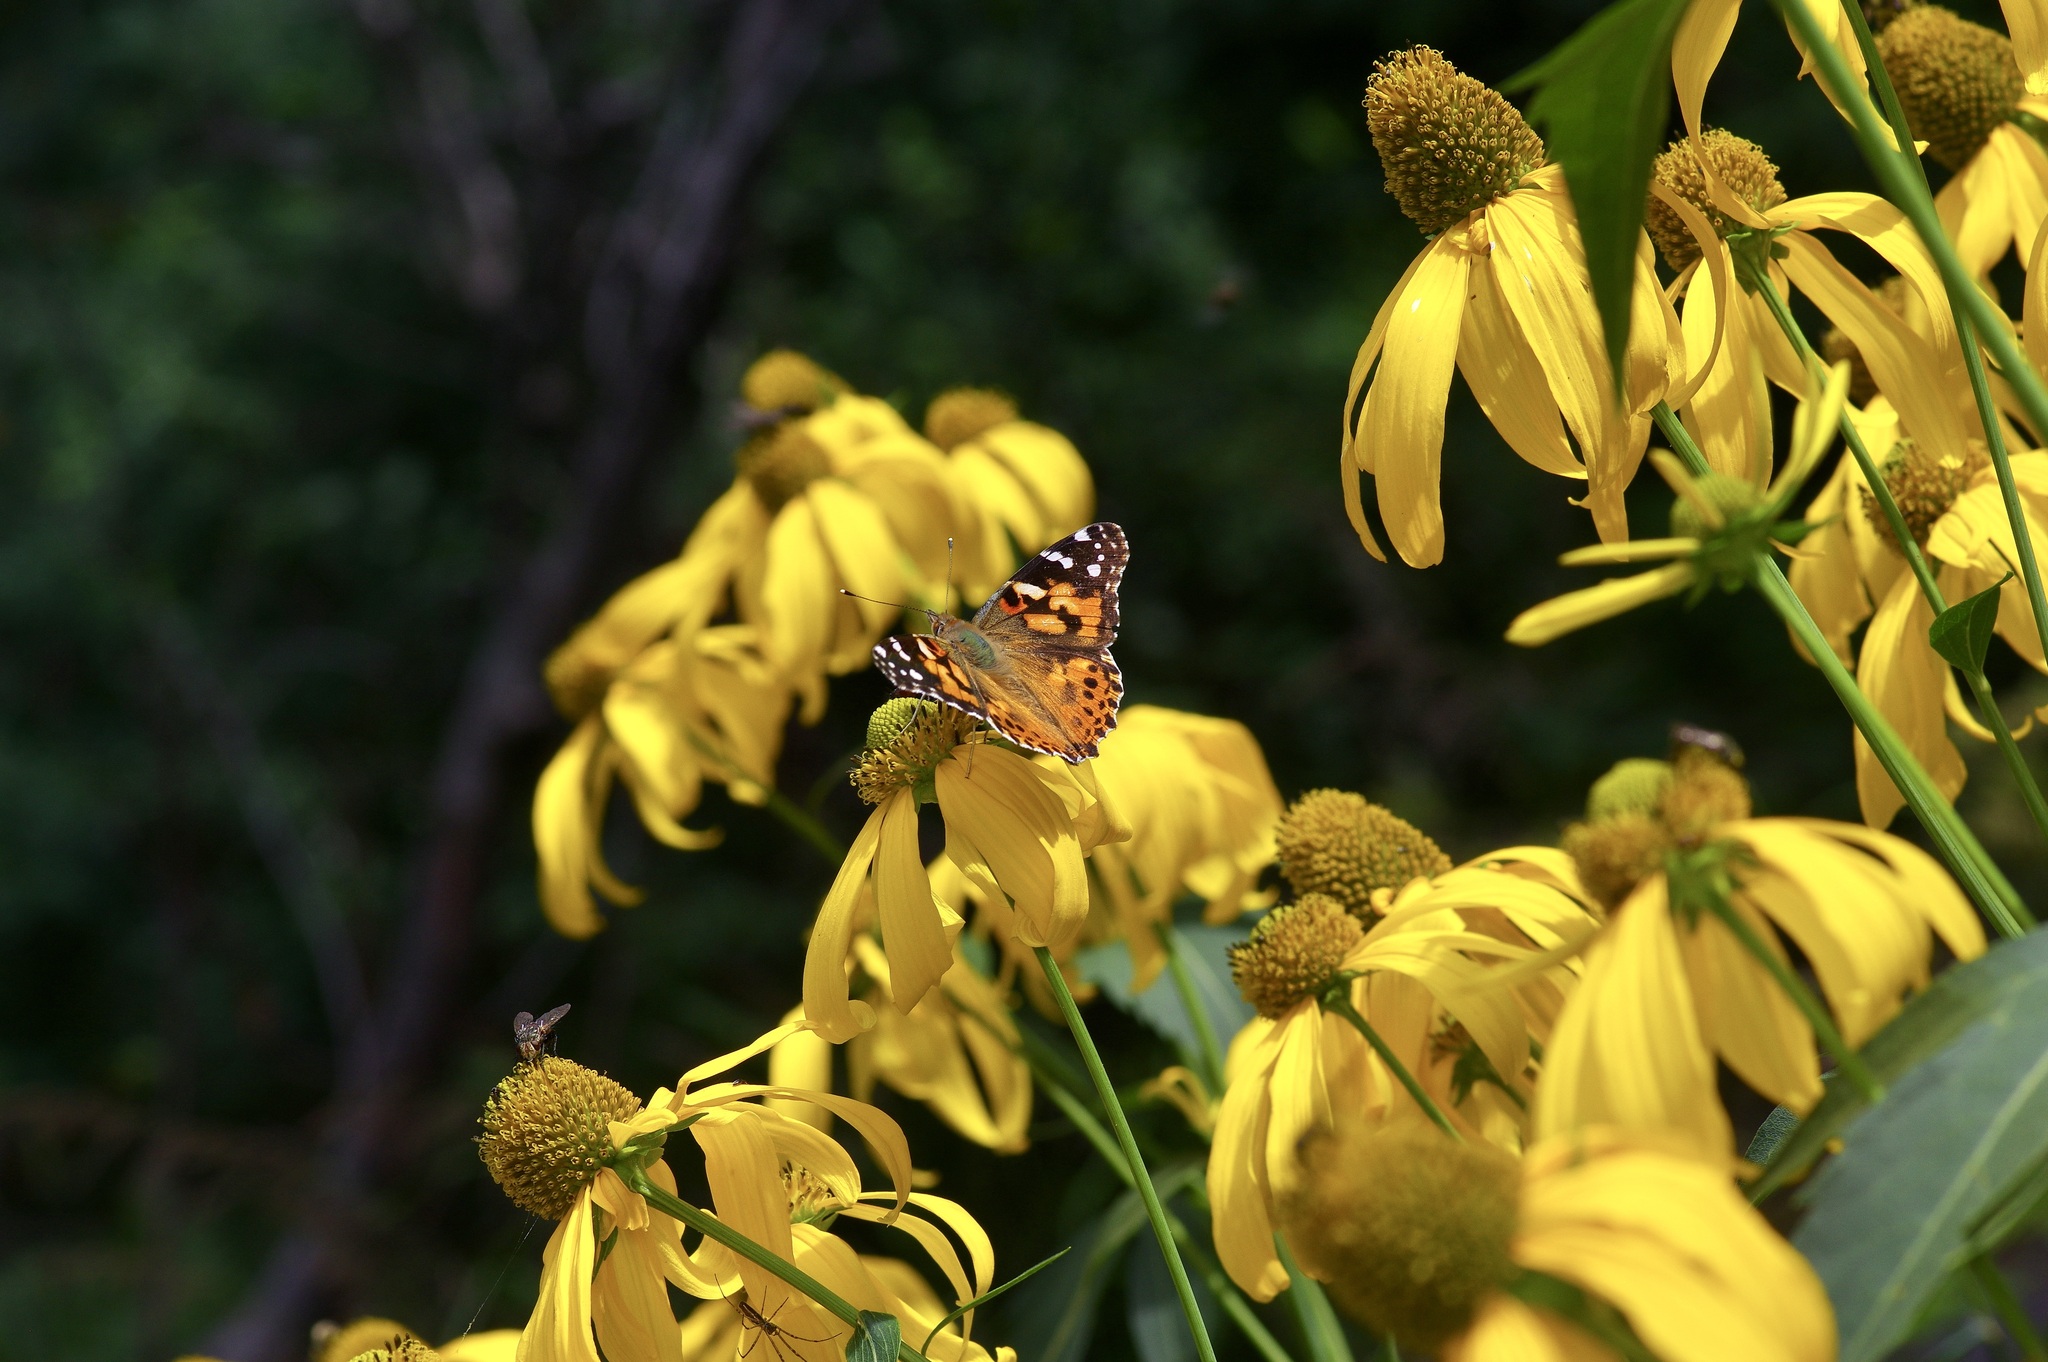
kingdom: Animalia
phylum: Arthropoda
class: Insecta
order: Lepidoptera
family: Nymphalidae
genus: Vanessa
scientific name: Vanessa cardui
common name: Painted lady
